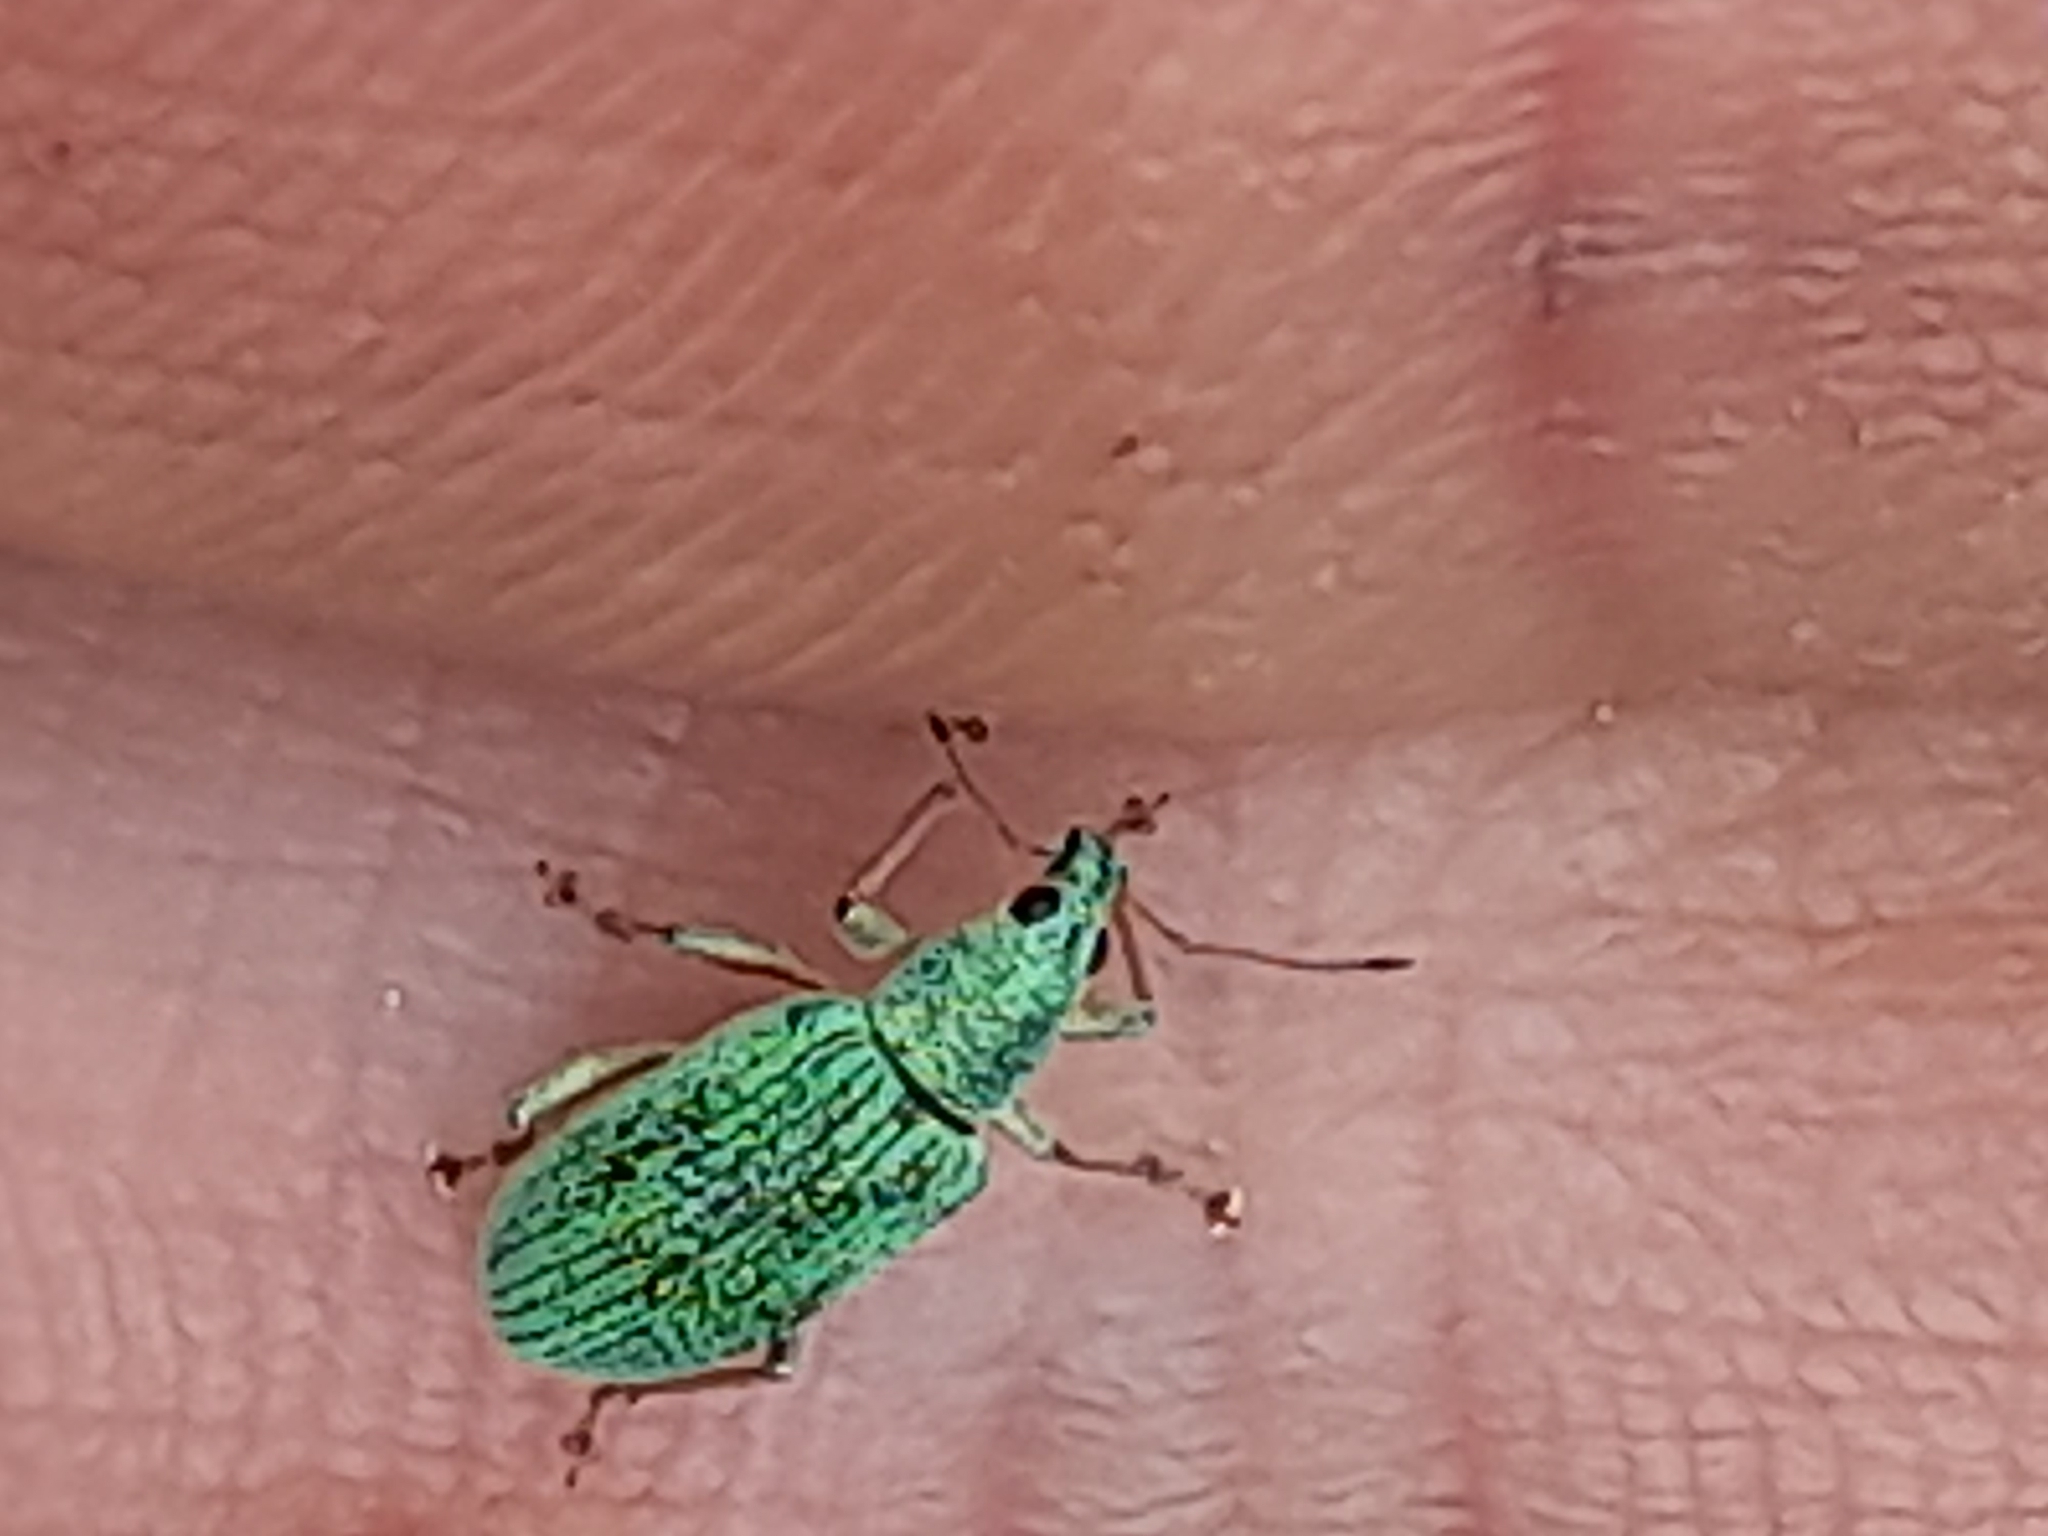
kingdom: Animalia
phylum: Arthropoda
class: Insecta
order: Coleoptera
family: Curculionidae
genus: Polydrusus
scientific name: Polydrusus formosus
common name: Weevil
